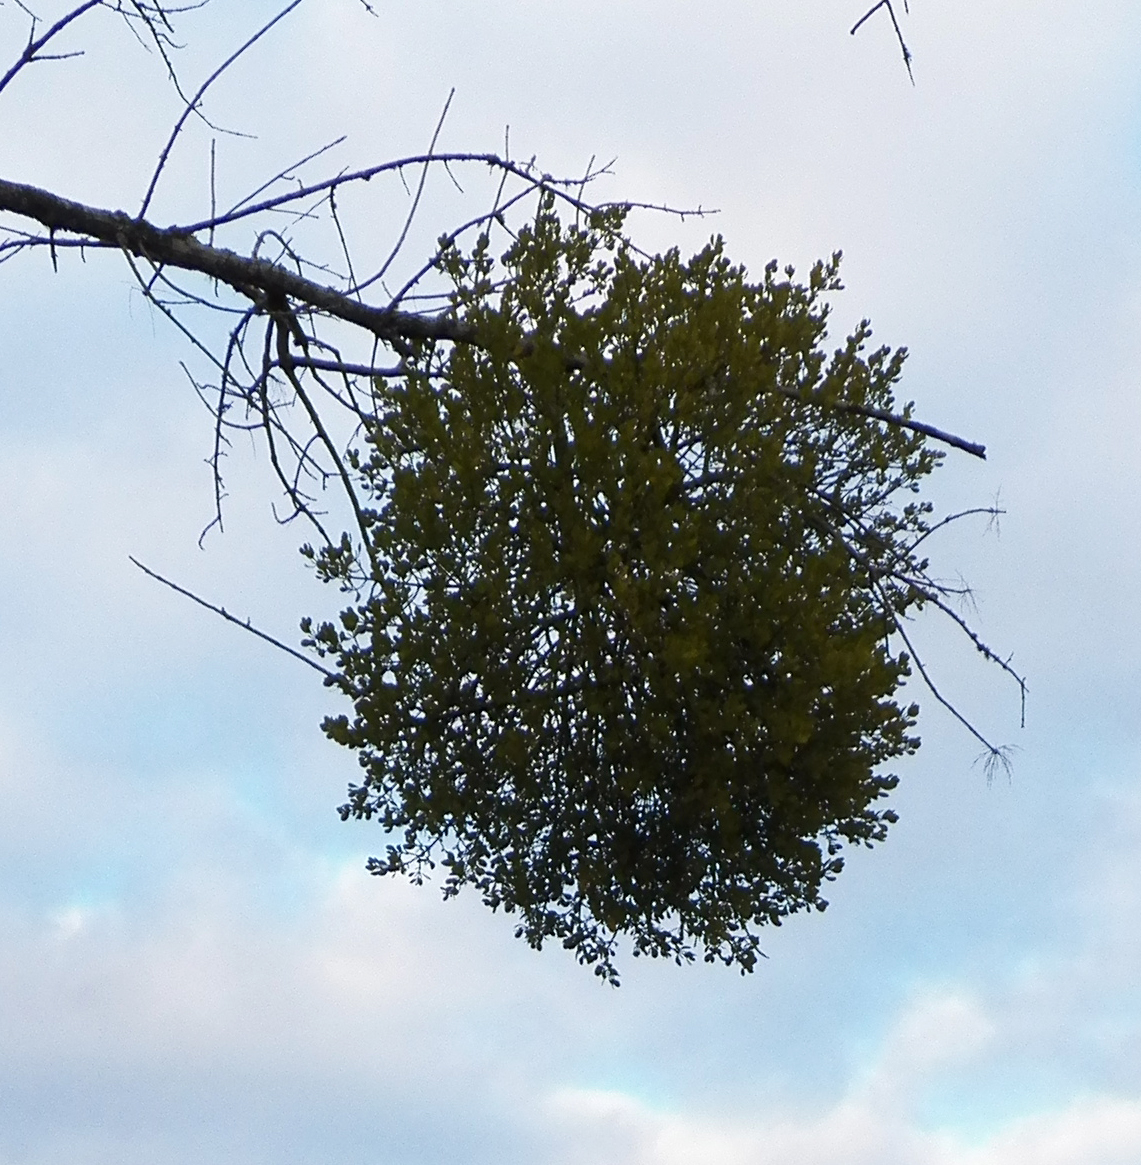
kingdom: Plantae
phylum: Tracheophyta
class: Magnoliopsida
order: Santalales
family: Viscaceae
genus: Phoradendron
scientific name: Phoradendron leucarpum
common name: Pacific mistletoe
